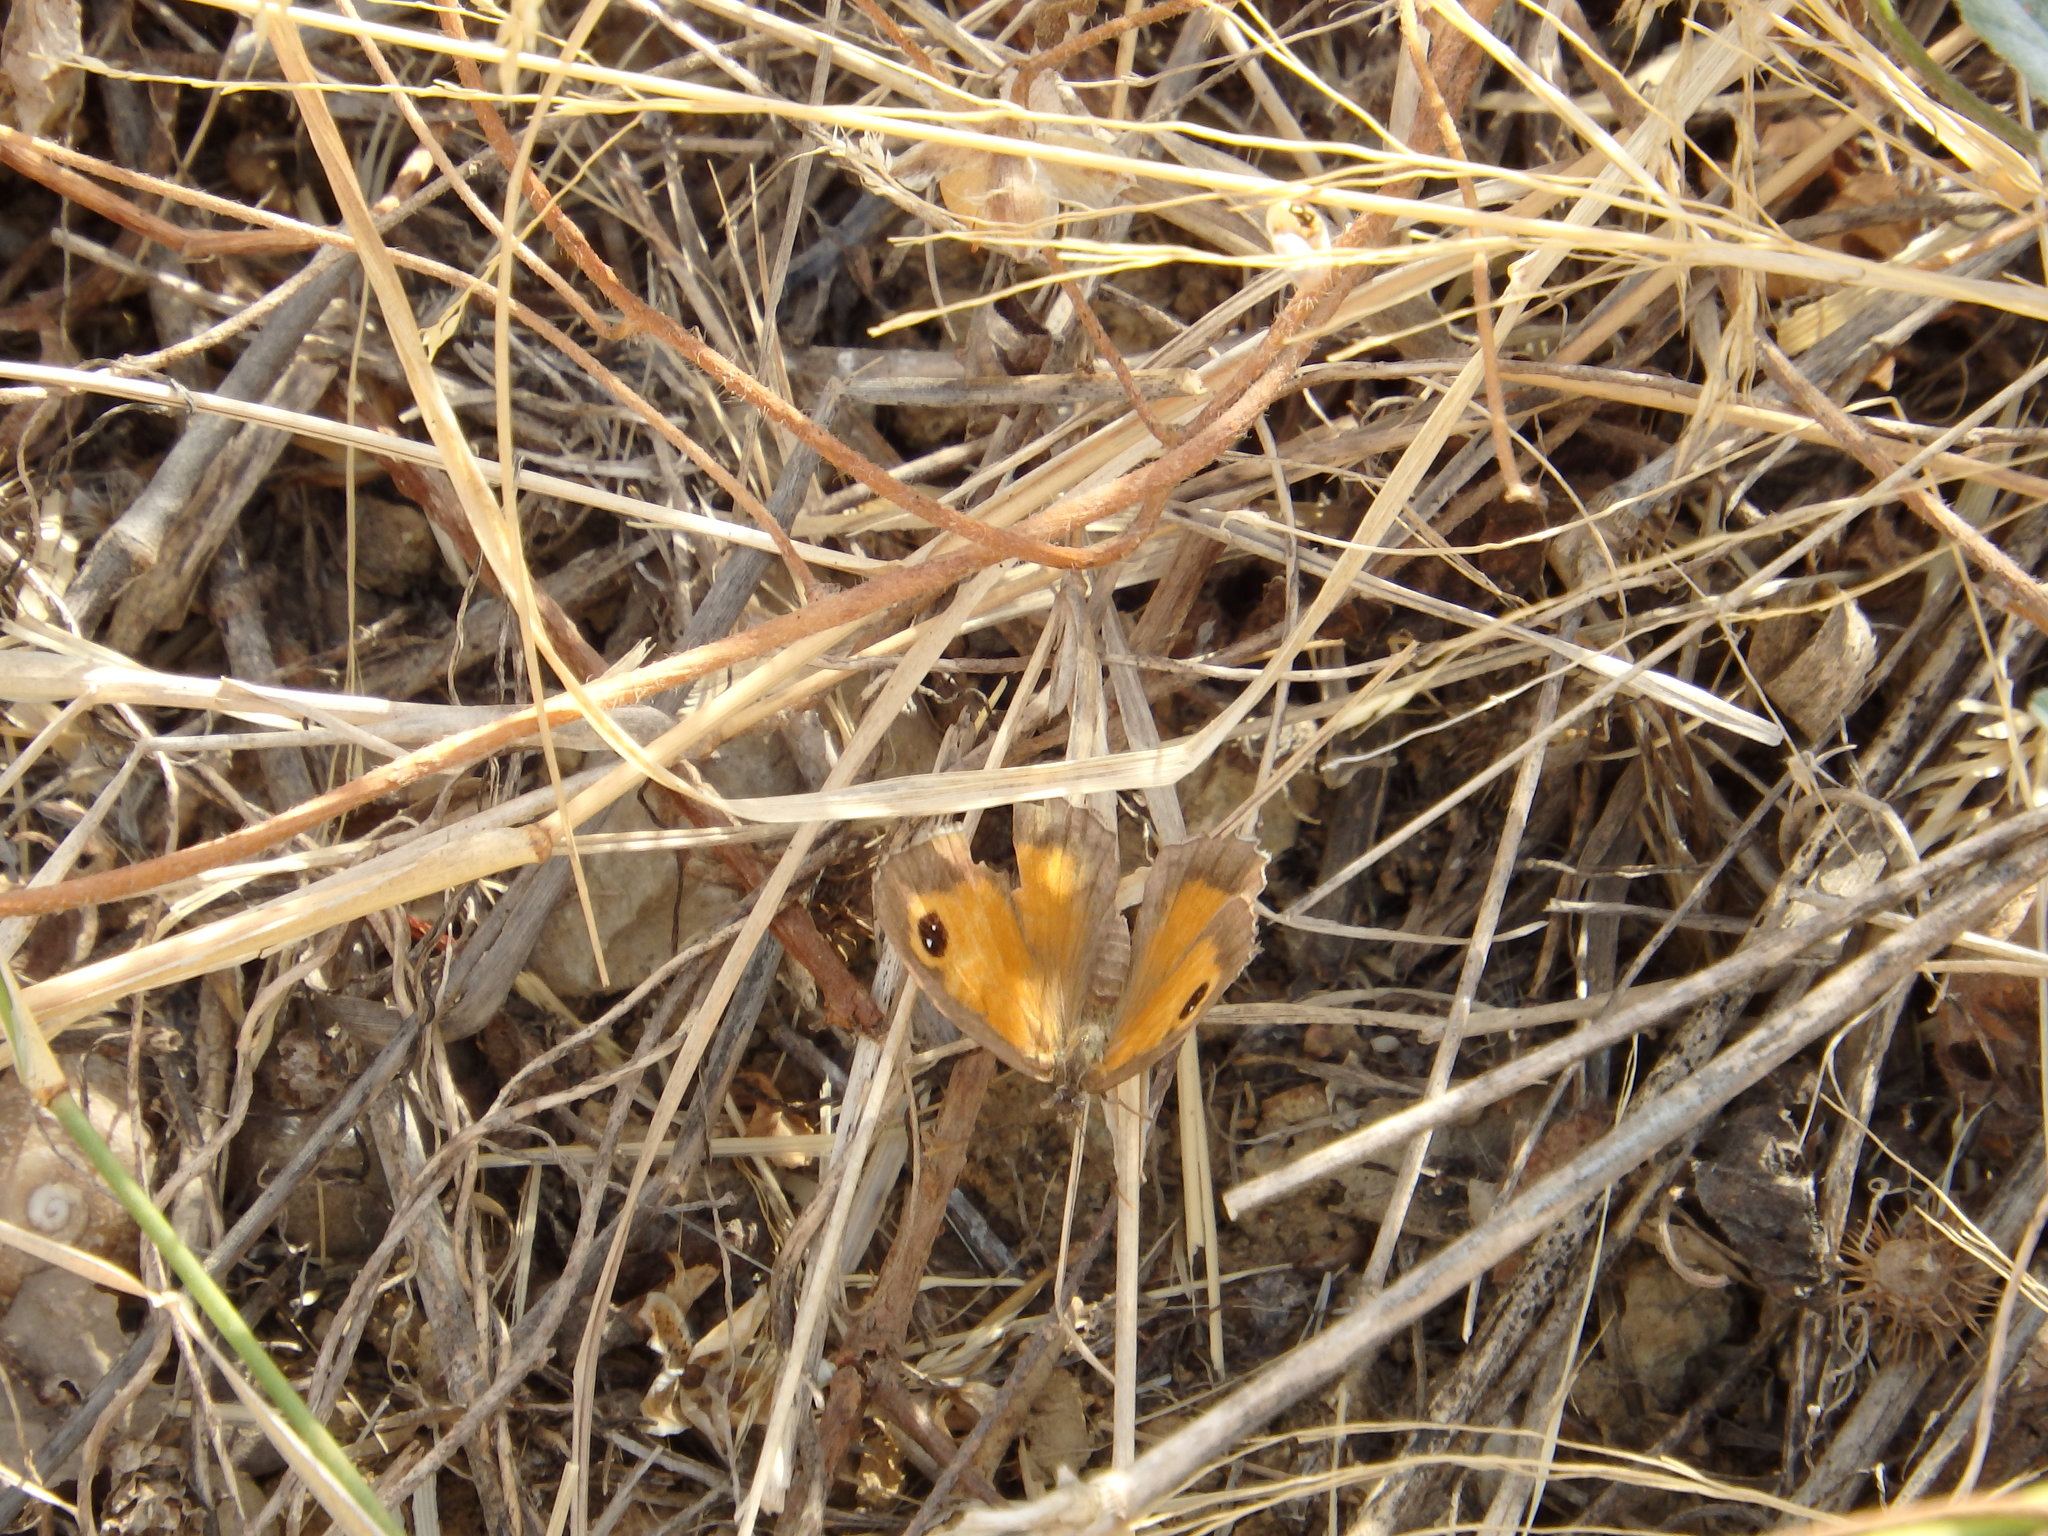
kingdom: Animalia
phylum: Arthropoda
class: Insecta
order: Lepidoptera
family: Nymphalidae
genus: Pyronia
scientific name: Pyronia cecilia
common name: Southern gatekeeper
